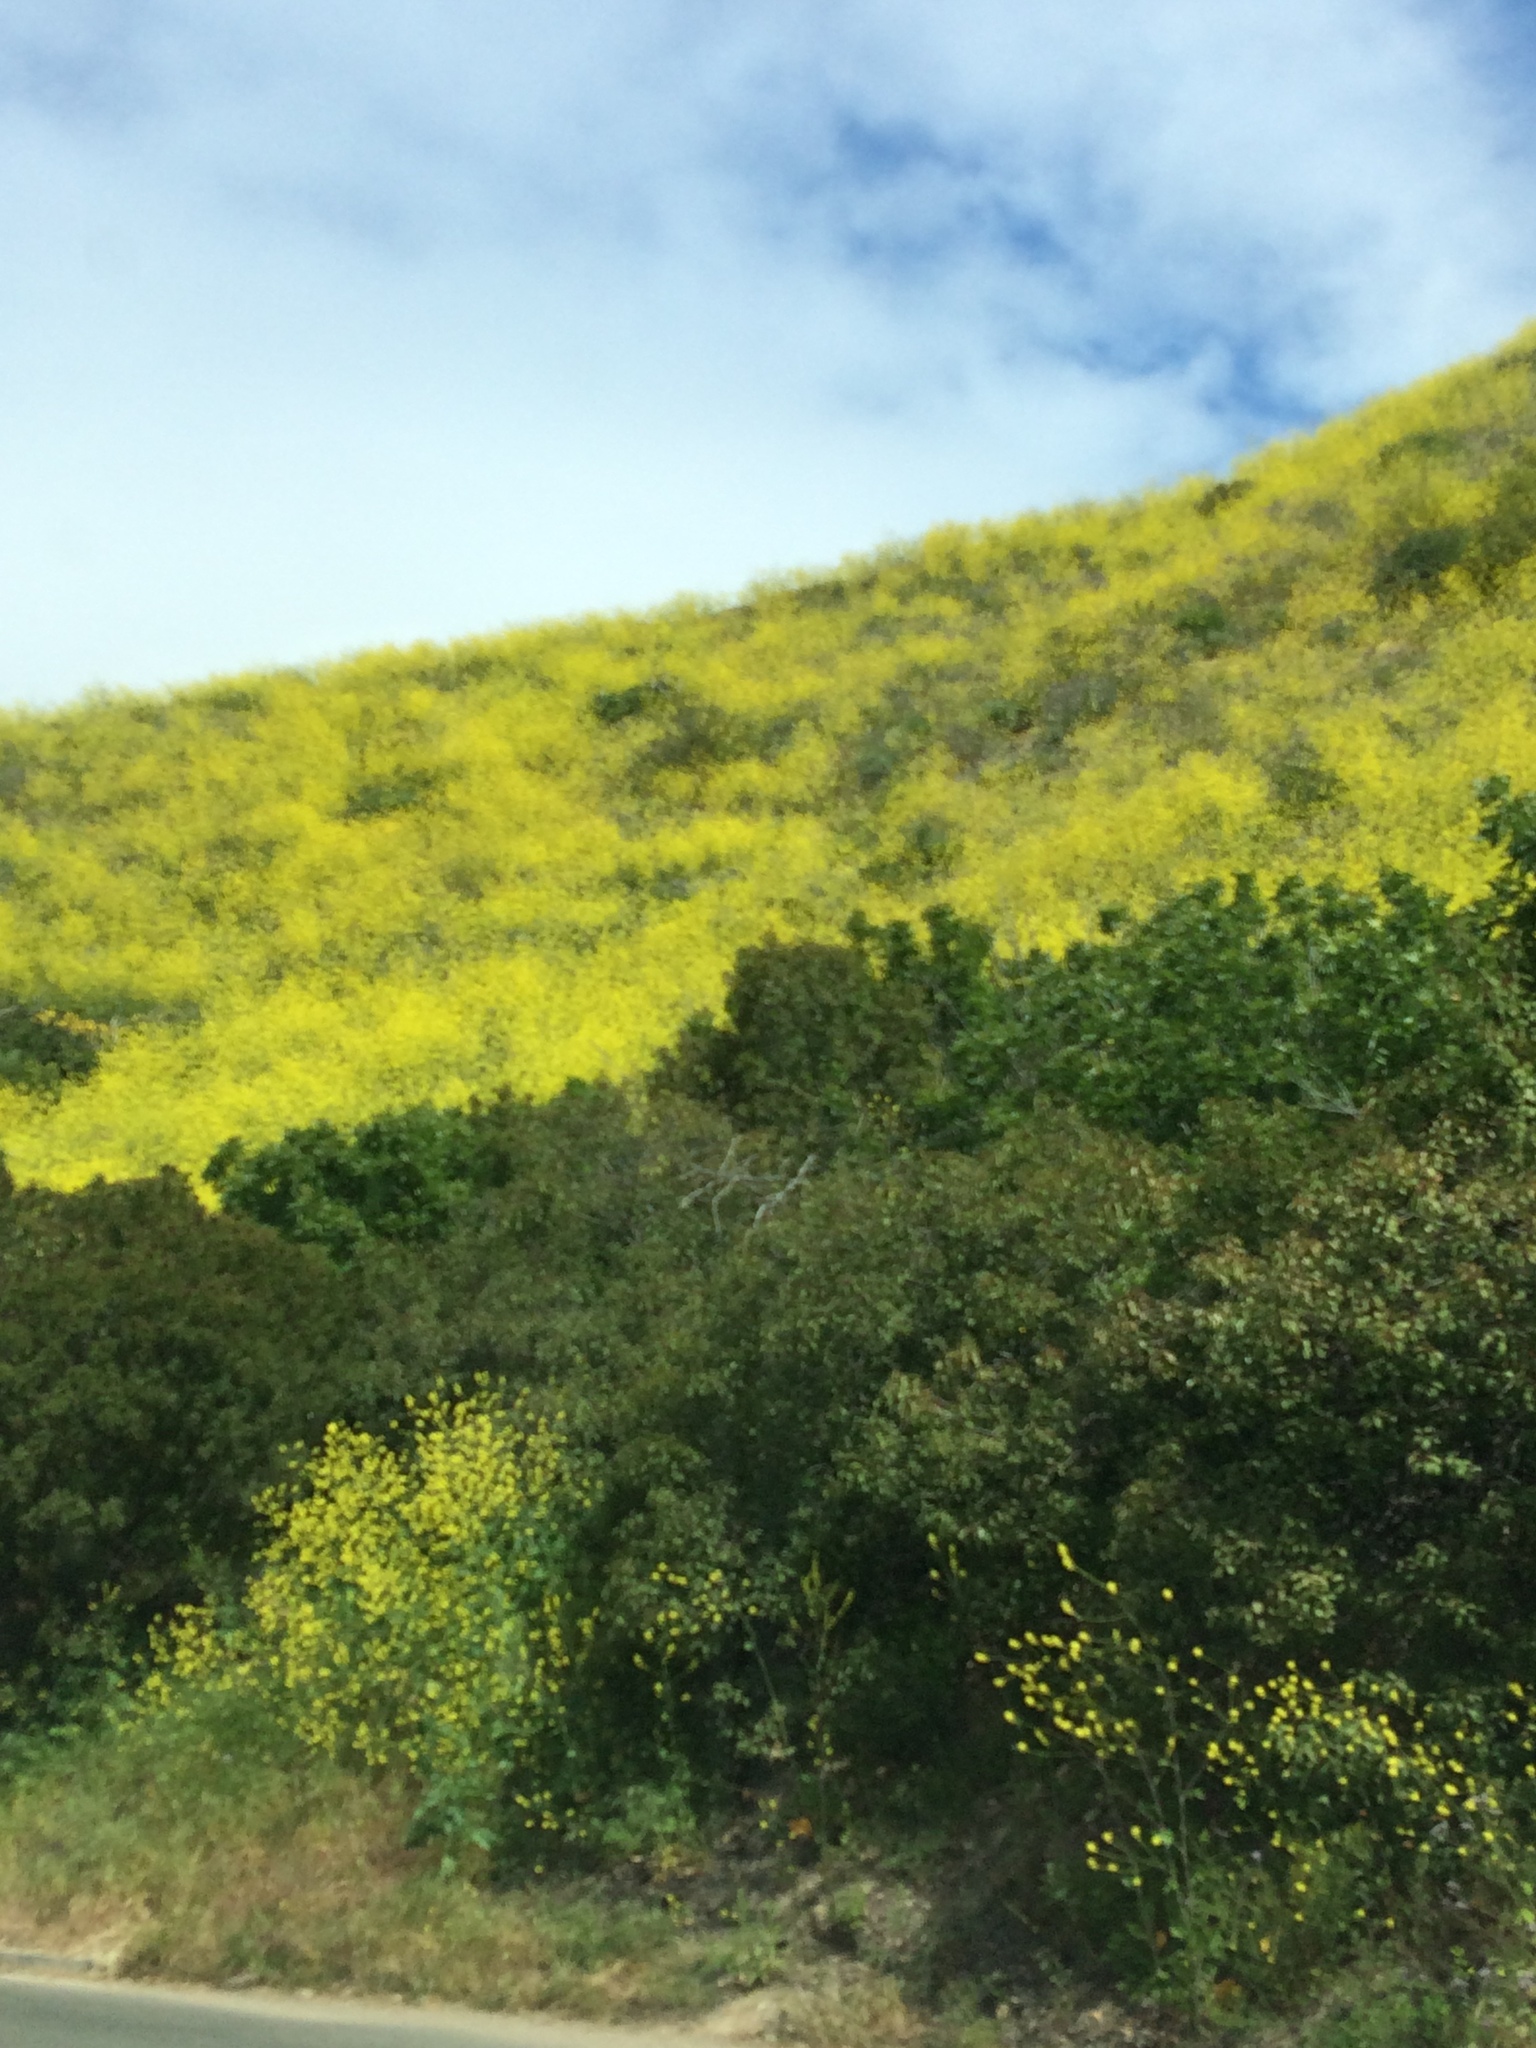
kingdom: Plantae
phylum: Tracheophyta
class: Magnoliopsida
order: Brassicales
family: Brassicaceae
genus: Brassica
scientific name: Brassica nigra
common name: Black mustard
